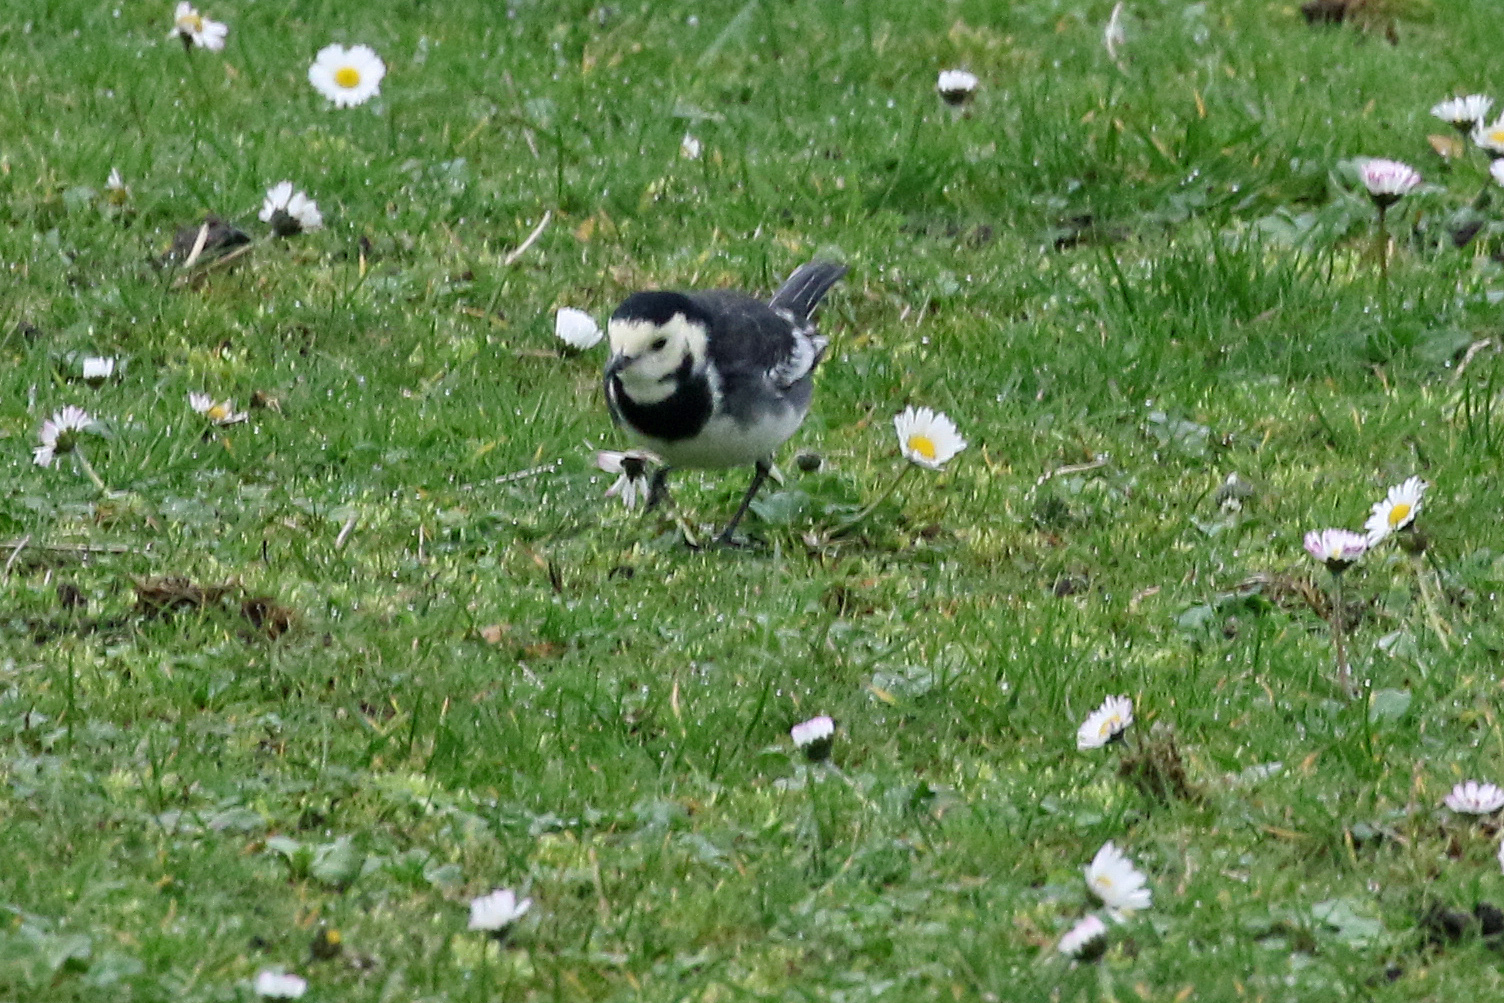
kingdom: Animalia
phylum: Chordata
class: Aves
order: Passeriformes
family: Motacillidae
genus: Motacilla
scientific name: Motacilla alba
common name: White wagtail
